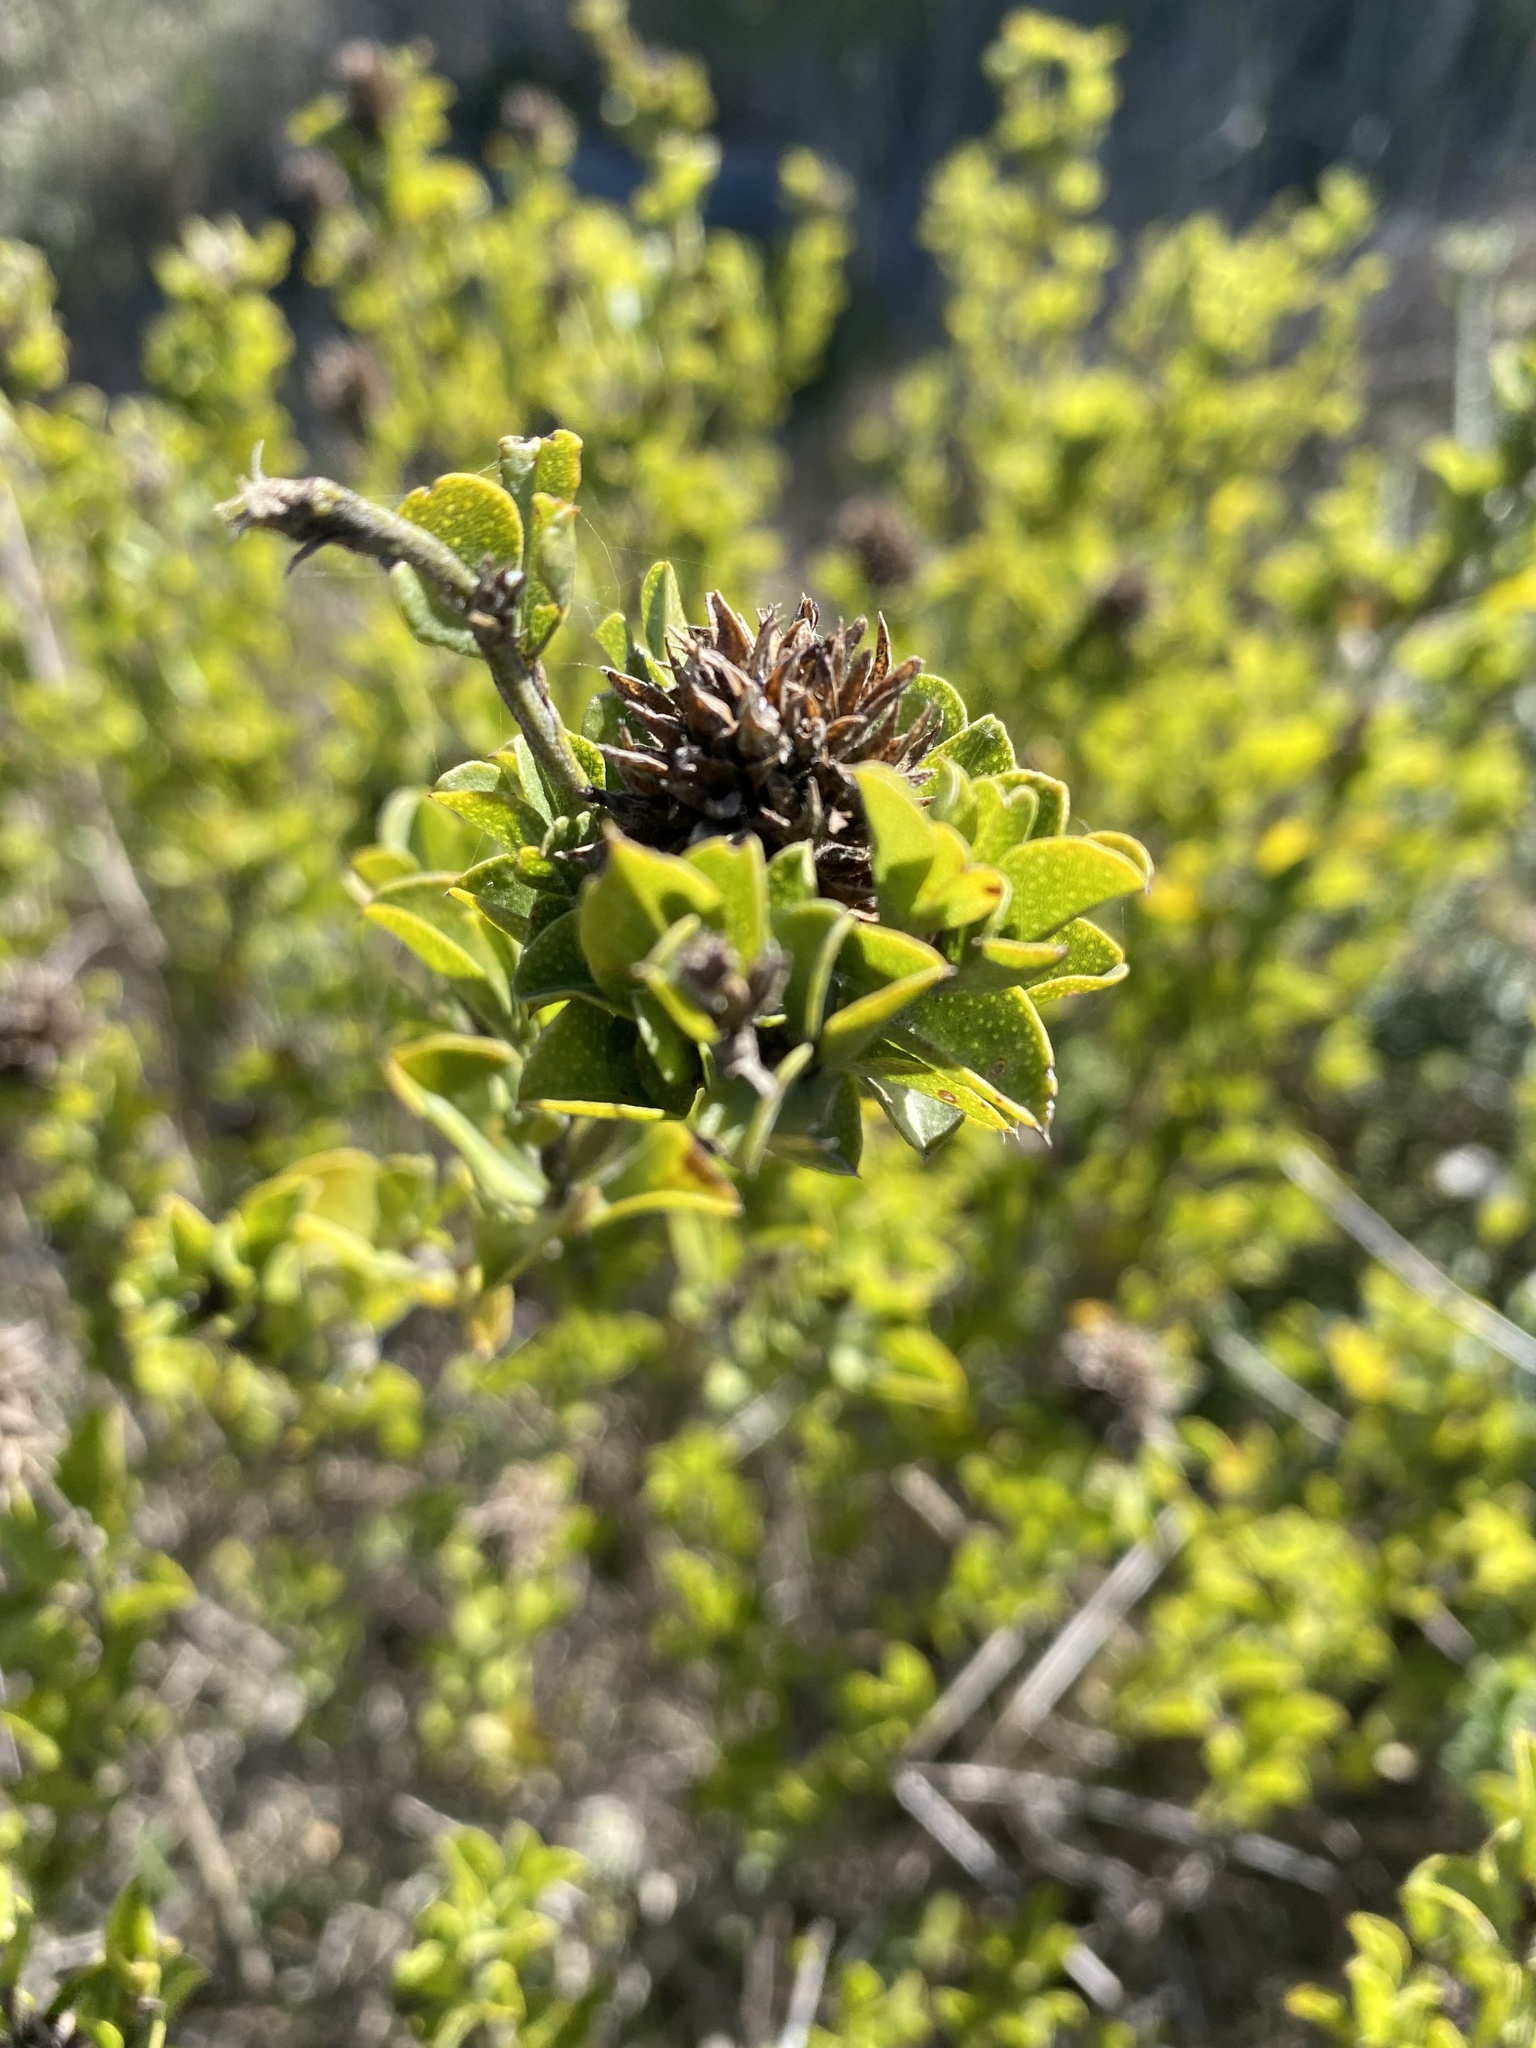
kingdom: Plantae
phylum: Tracheophyta
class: Magnoliopsida
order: Fabales
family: Fabaceae
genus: Psoralea
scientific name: Psoralea bracteolata
